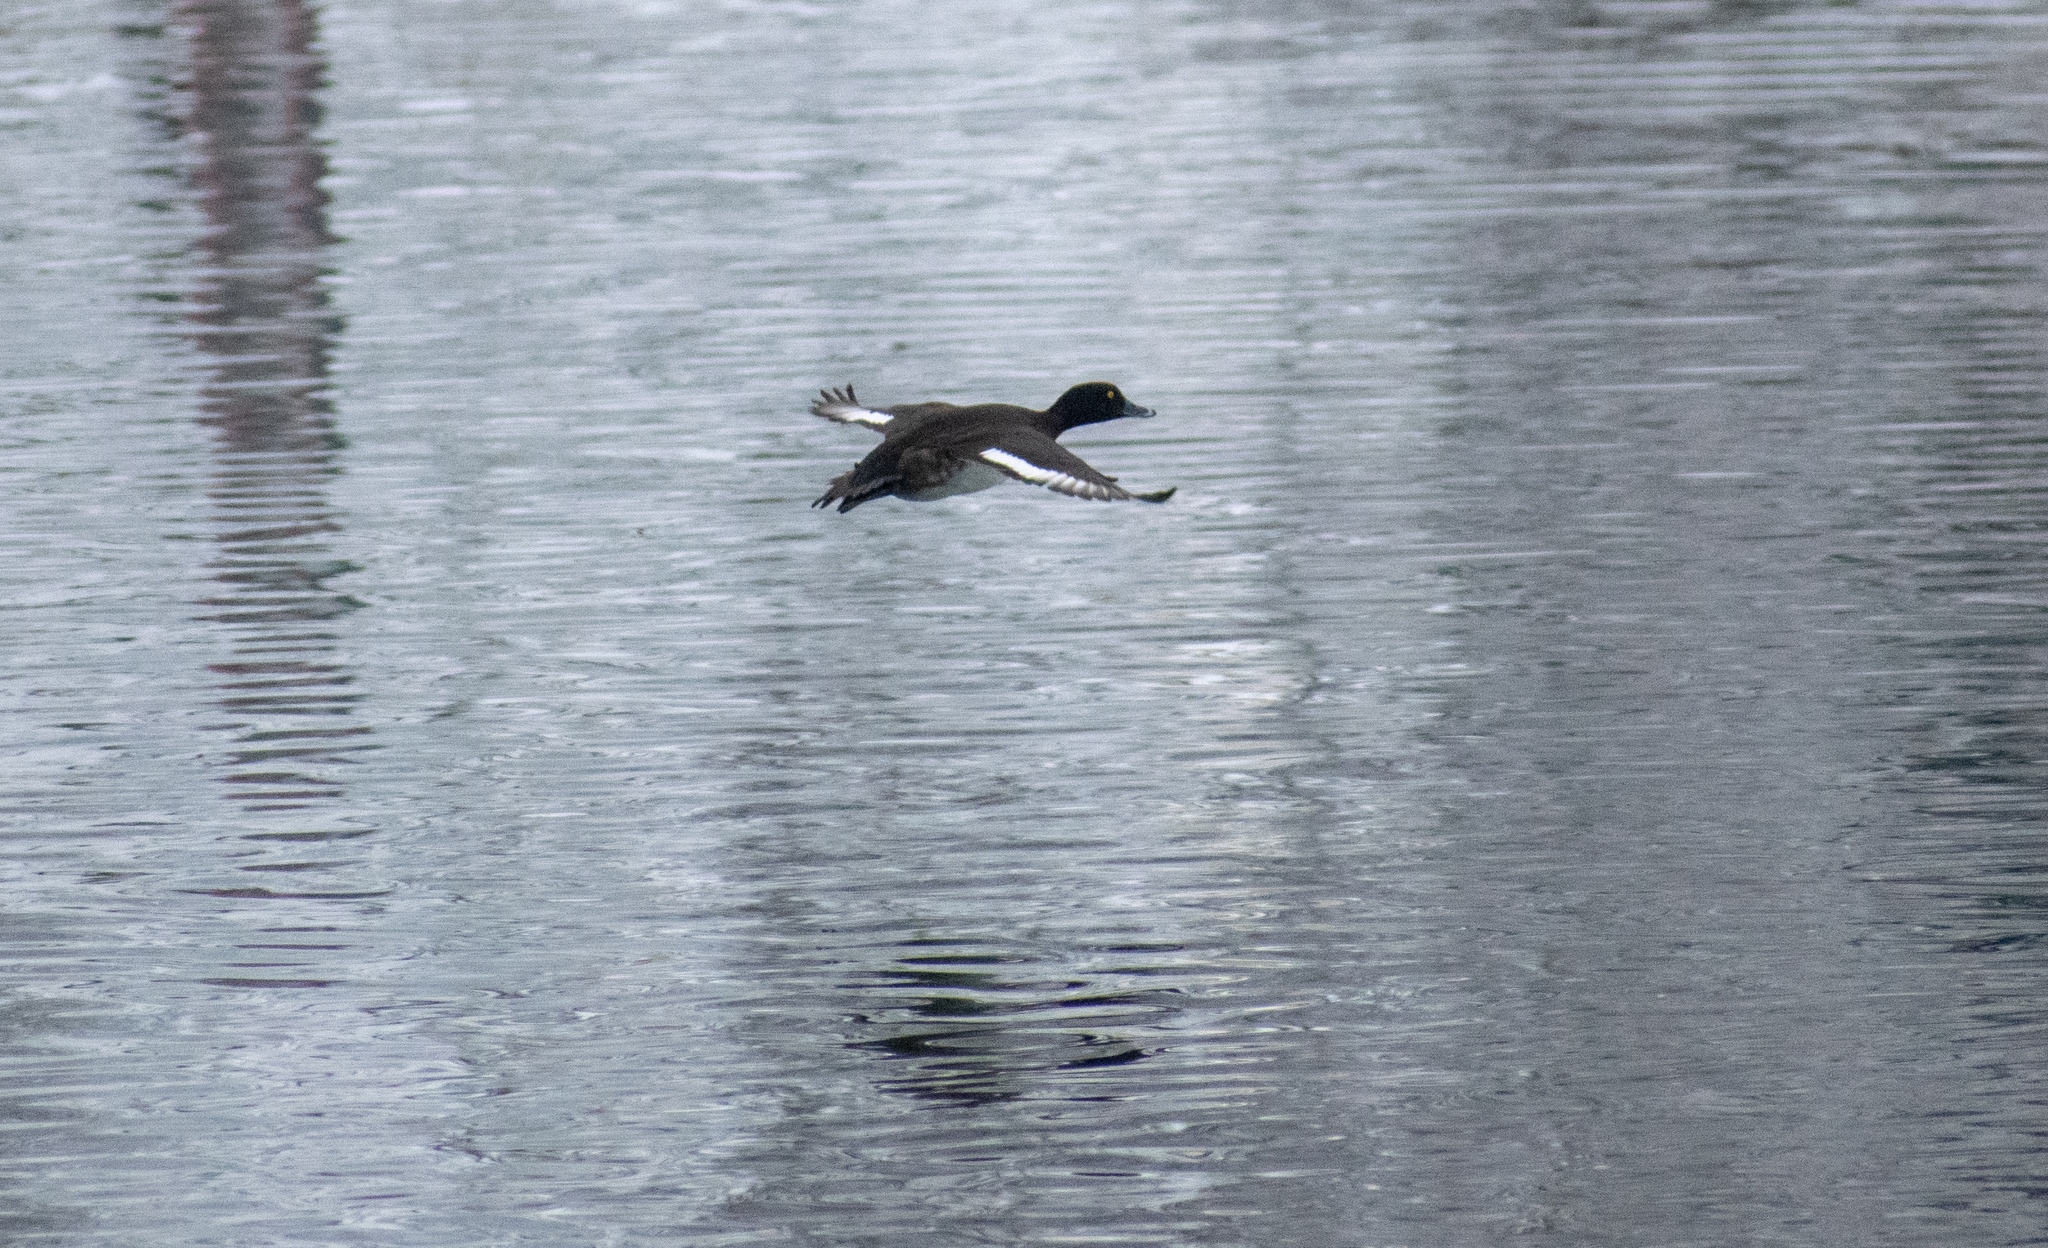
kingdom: Animalia
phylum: Chordata
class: Aves
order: Anseriformes
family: Anatidae
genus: Aythya
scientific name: Aythya fuligula
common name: Tufted duck
